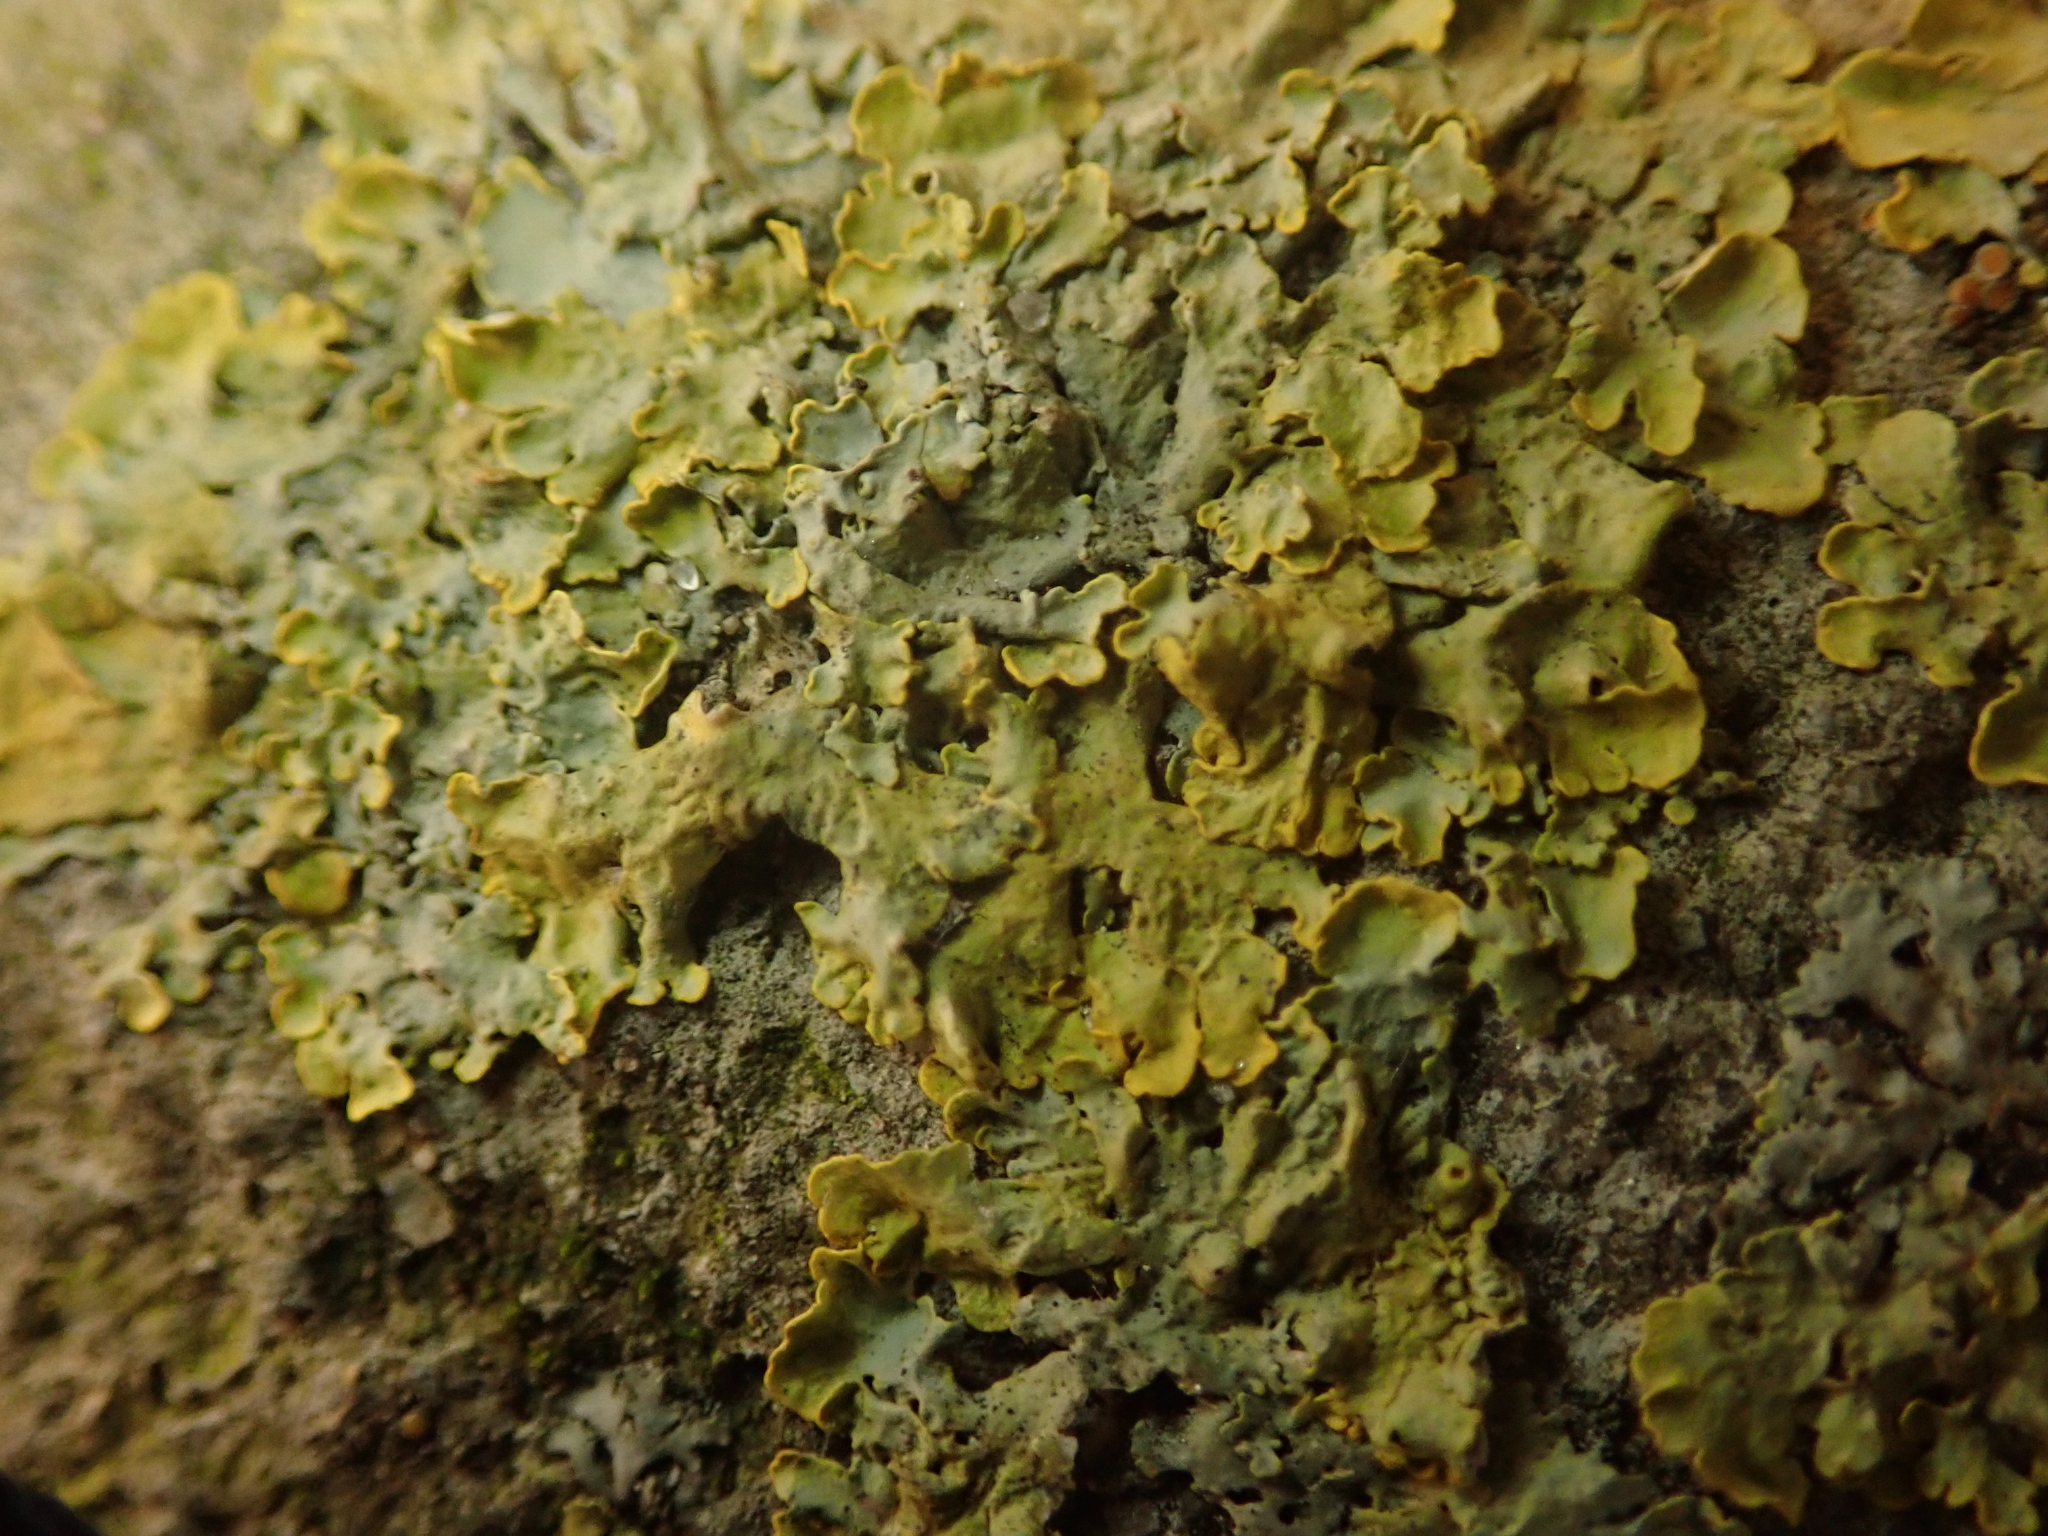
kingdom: Fungi
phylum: Ascomycota
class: Lecanoromycetes
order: Teloschistales
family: Teloschistaceae
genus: Xanthoria
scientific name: Xanthoria parietina
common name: Common orange lichen
